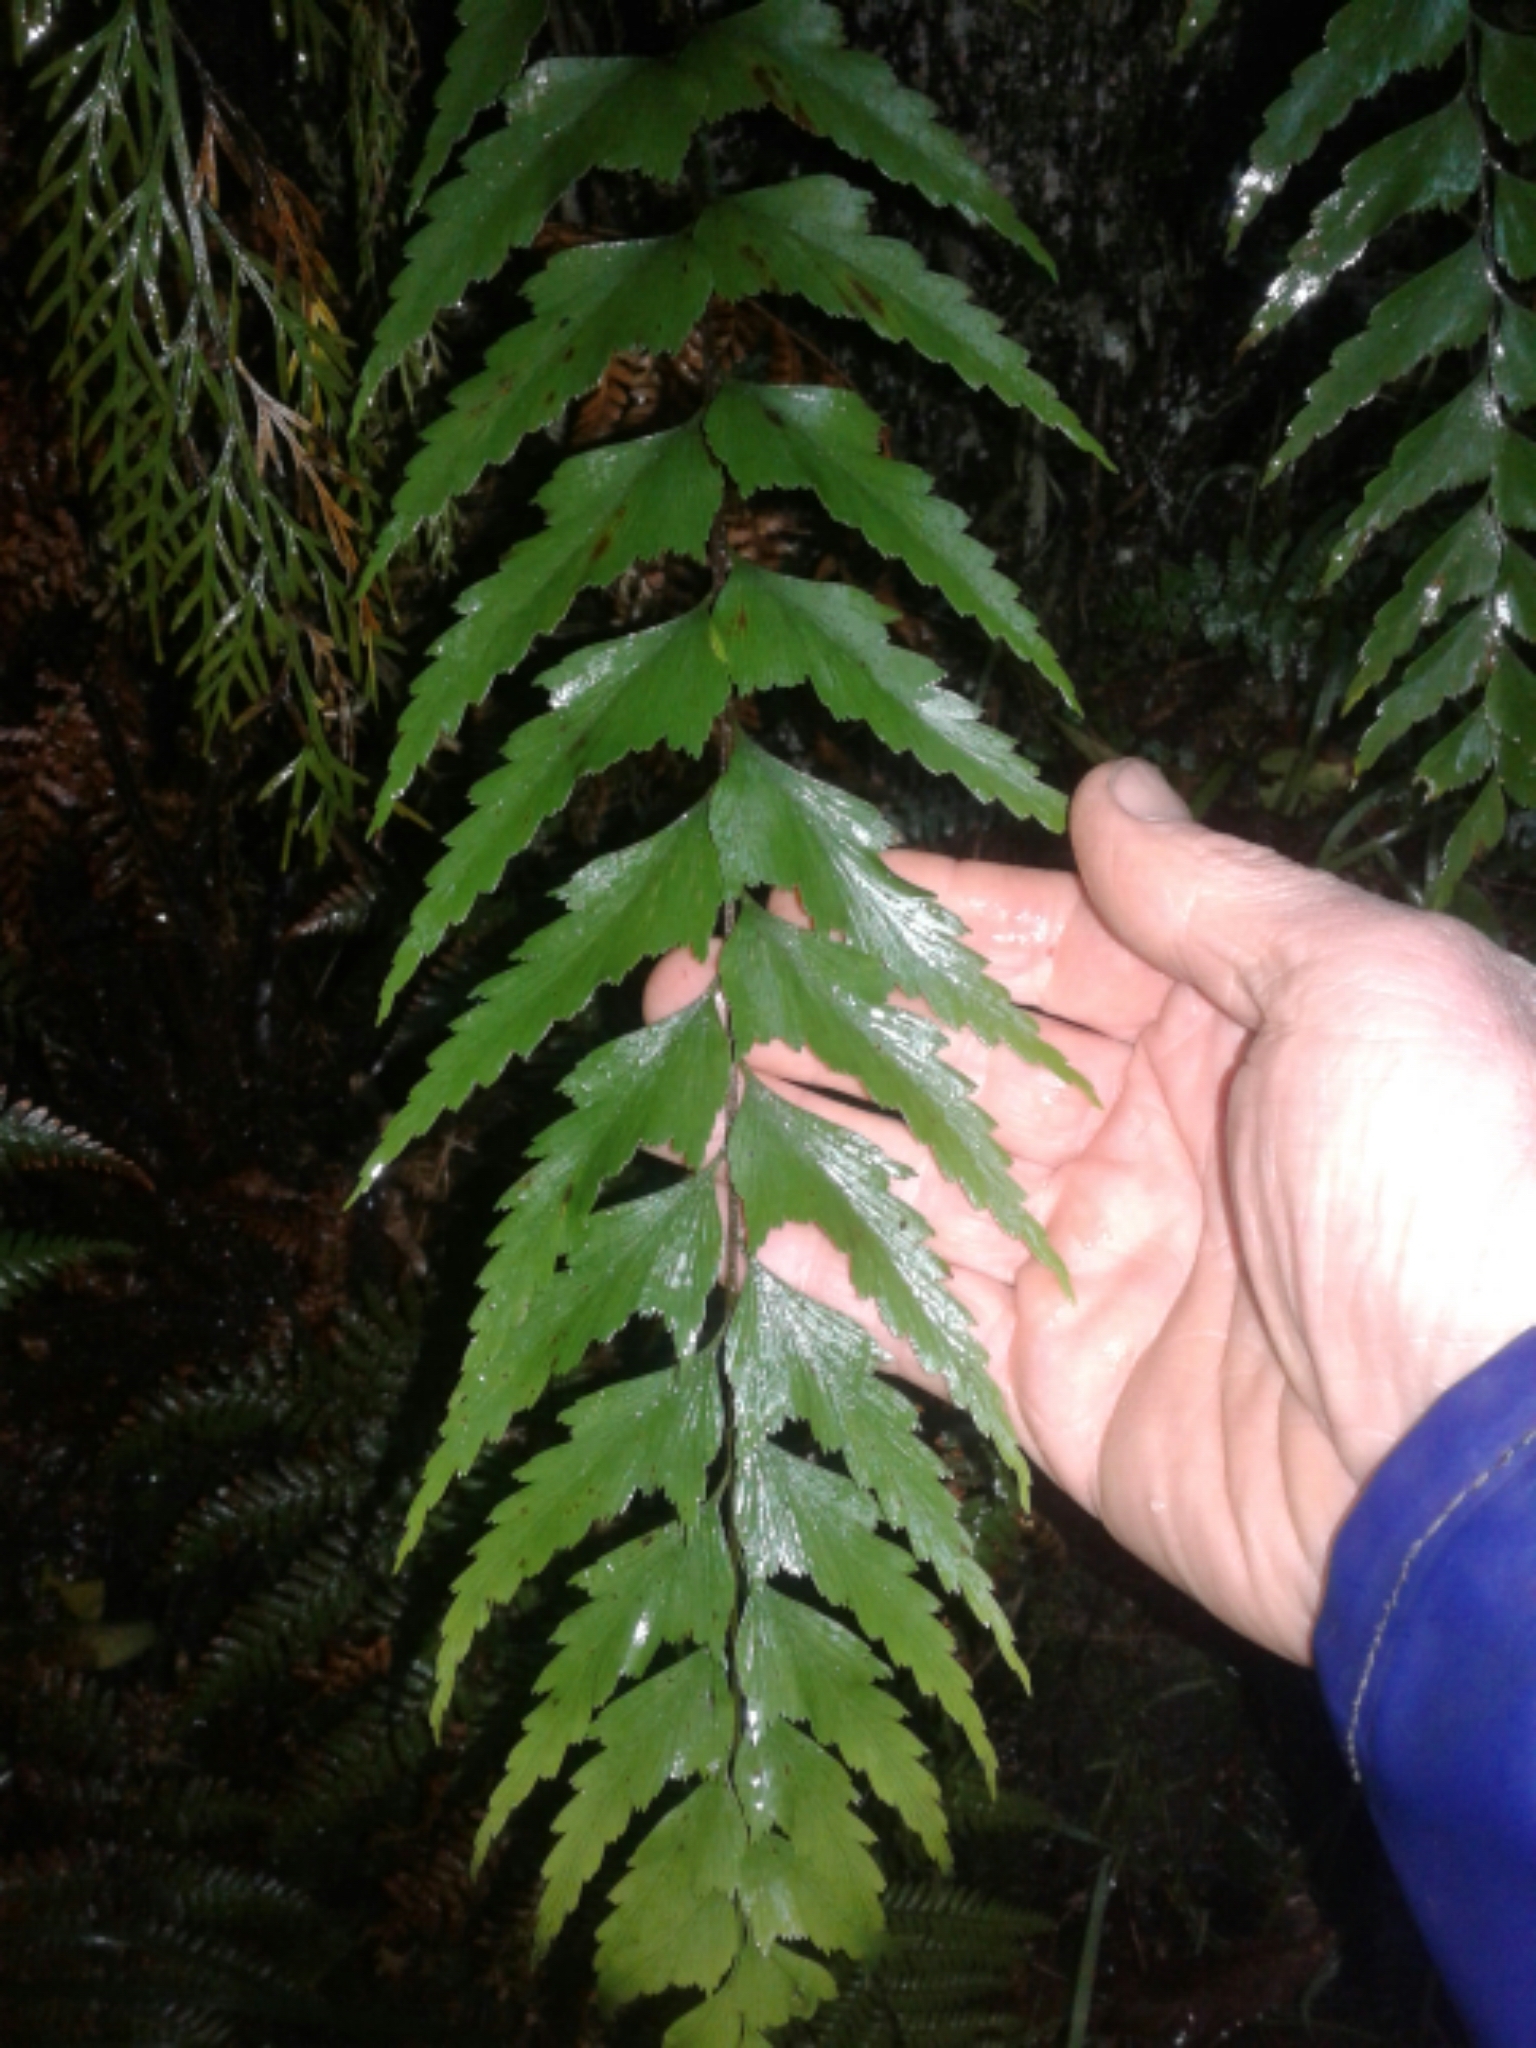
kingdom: Plantae
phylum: Tracheophyta
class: Polypodiopsida
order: Polypodiales
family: Aspleniaceae
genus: Asplenium
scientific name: Asplenium polyodon
